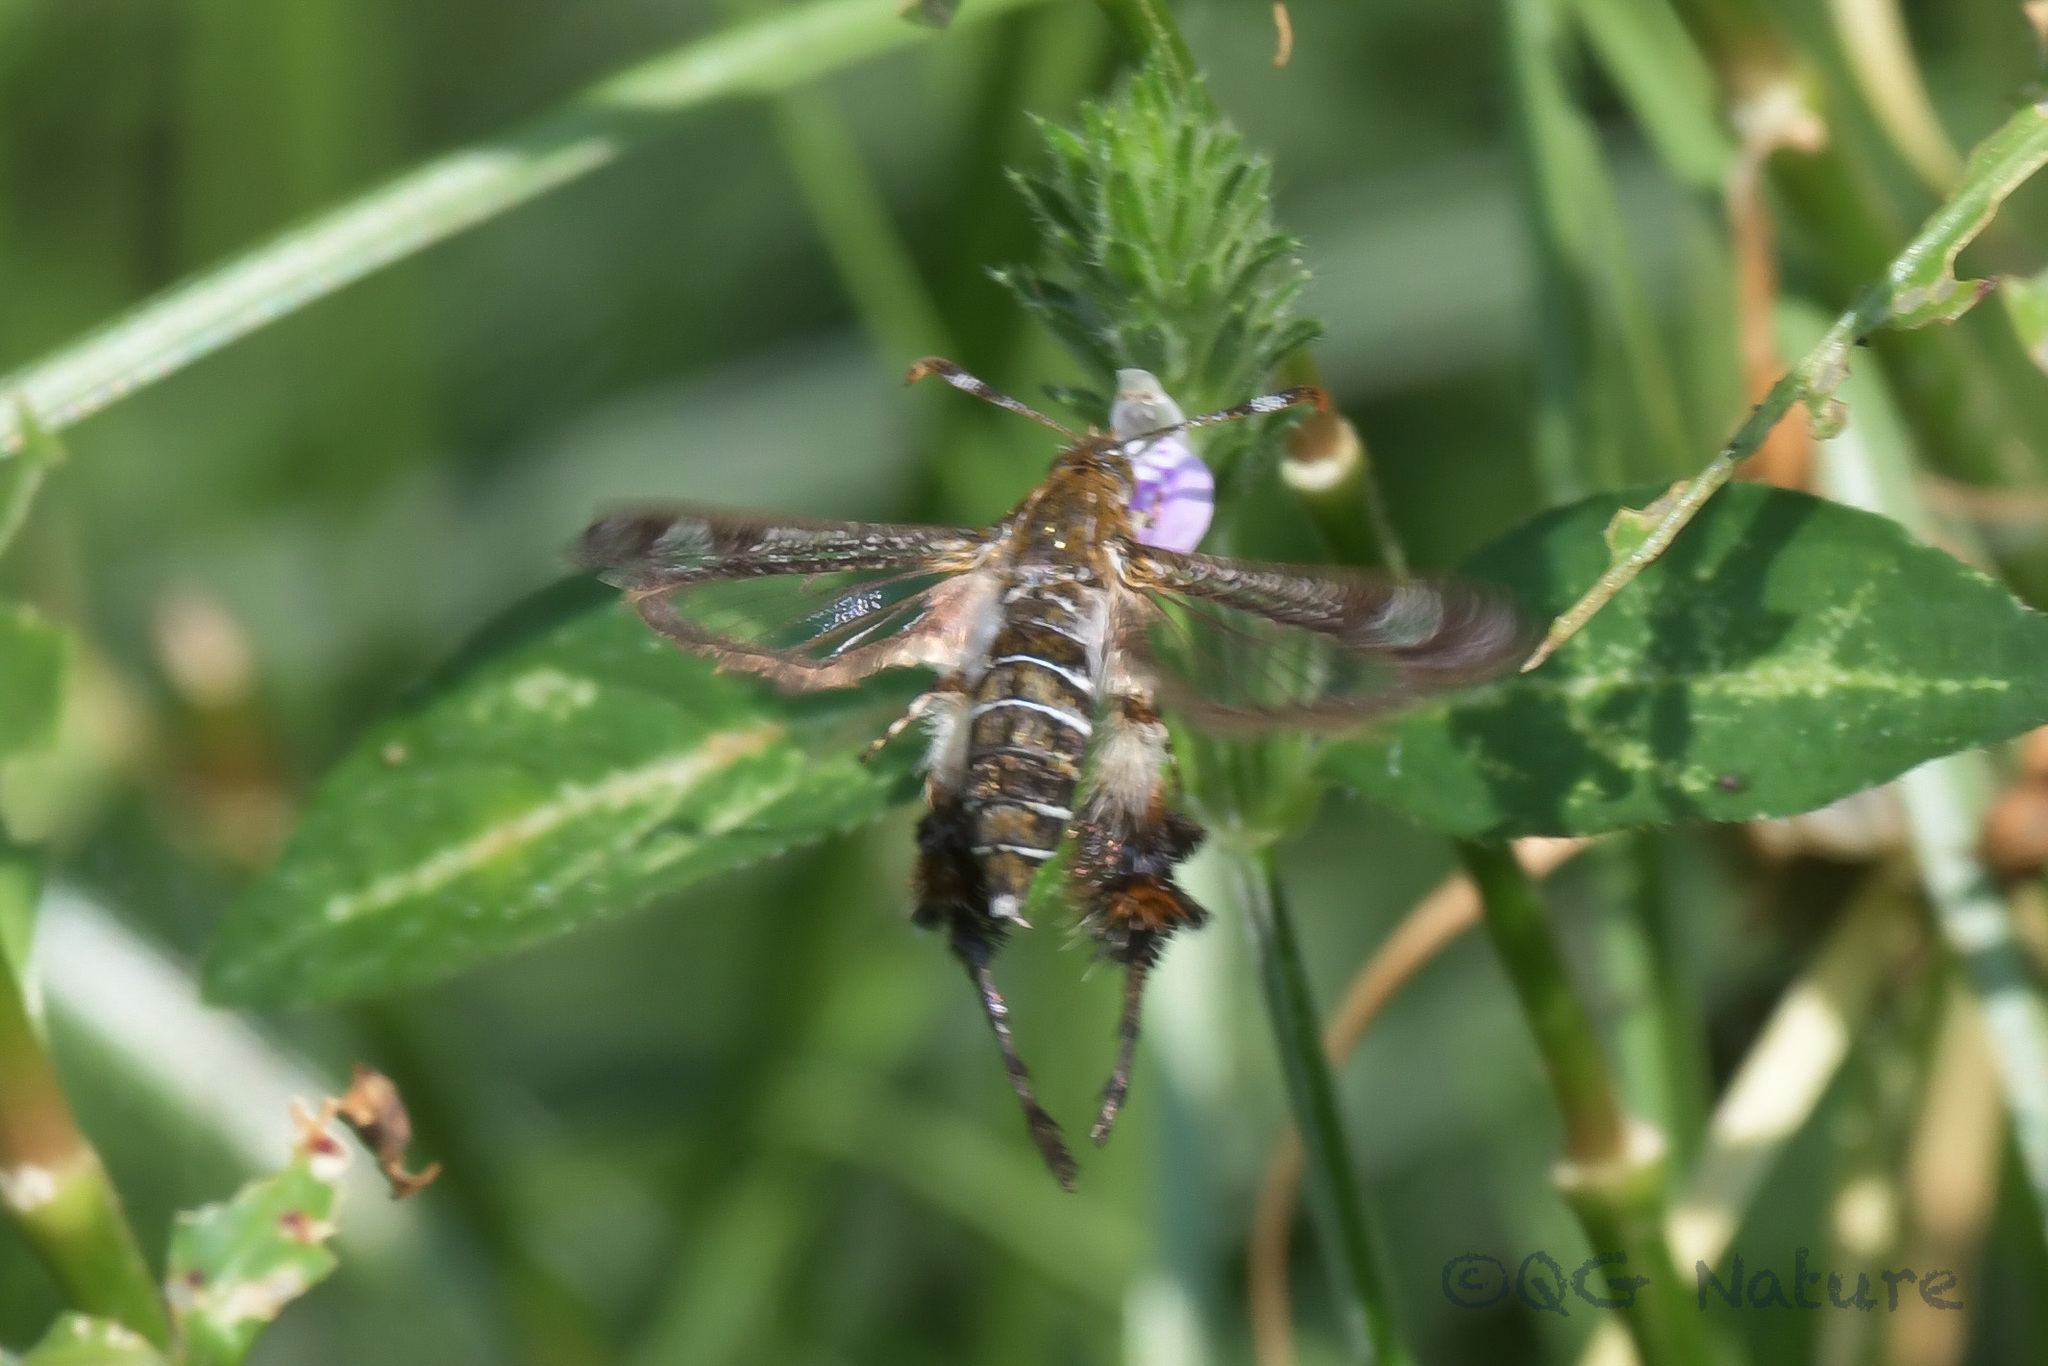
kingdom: Animalia
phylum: Arthropoda
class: Insecta
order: Lepidoptera
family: Sesiidae
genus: Macroscelesia
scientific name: Macroscelesia longipes
